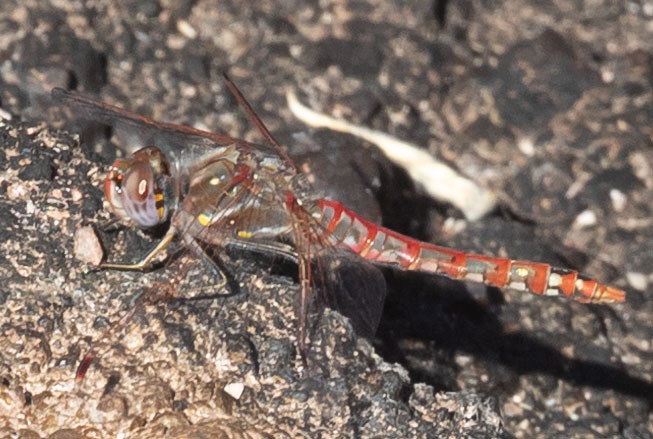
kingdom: Animalia
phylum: Arthropoda
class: Insecta
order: Odonata
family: Libellulidae
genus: Sympetrum
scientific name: Sympetrum corruptum
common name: Variegated meadowhawk
